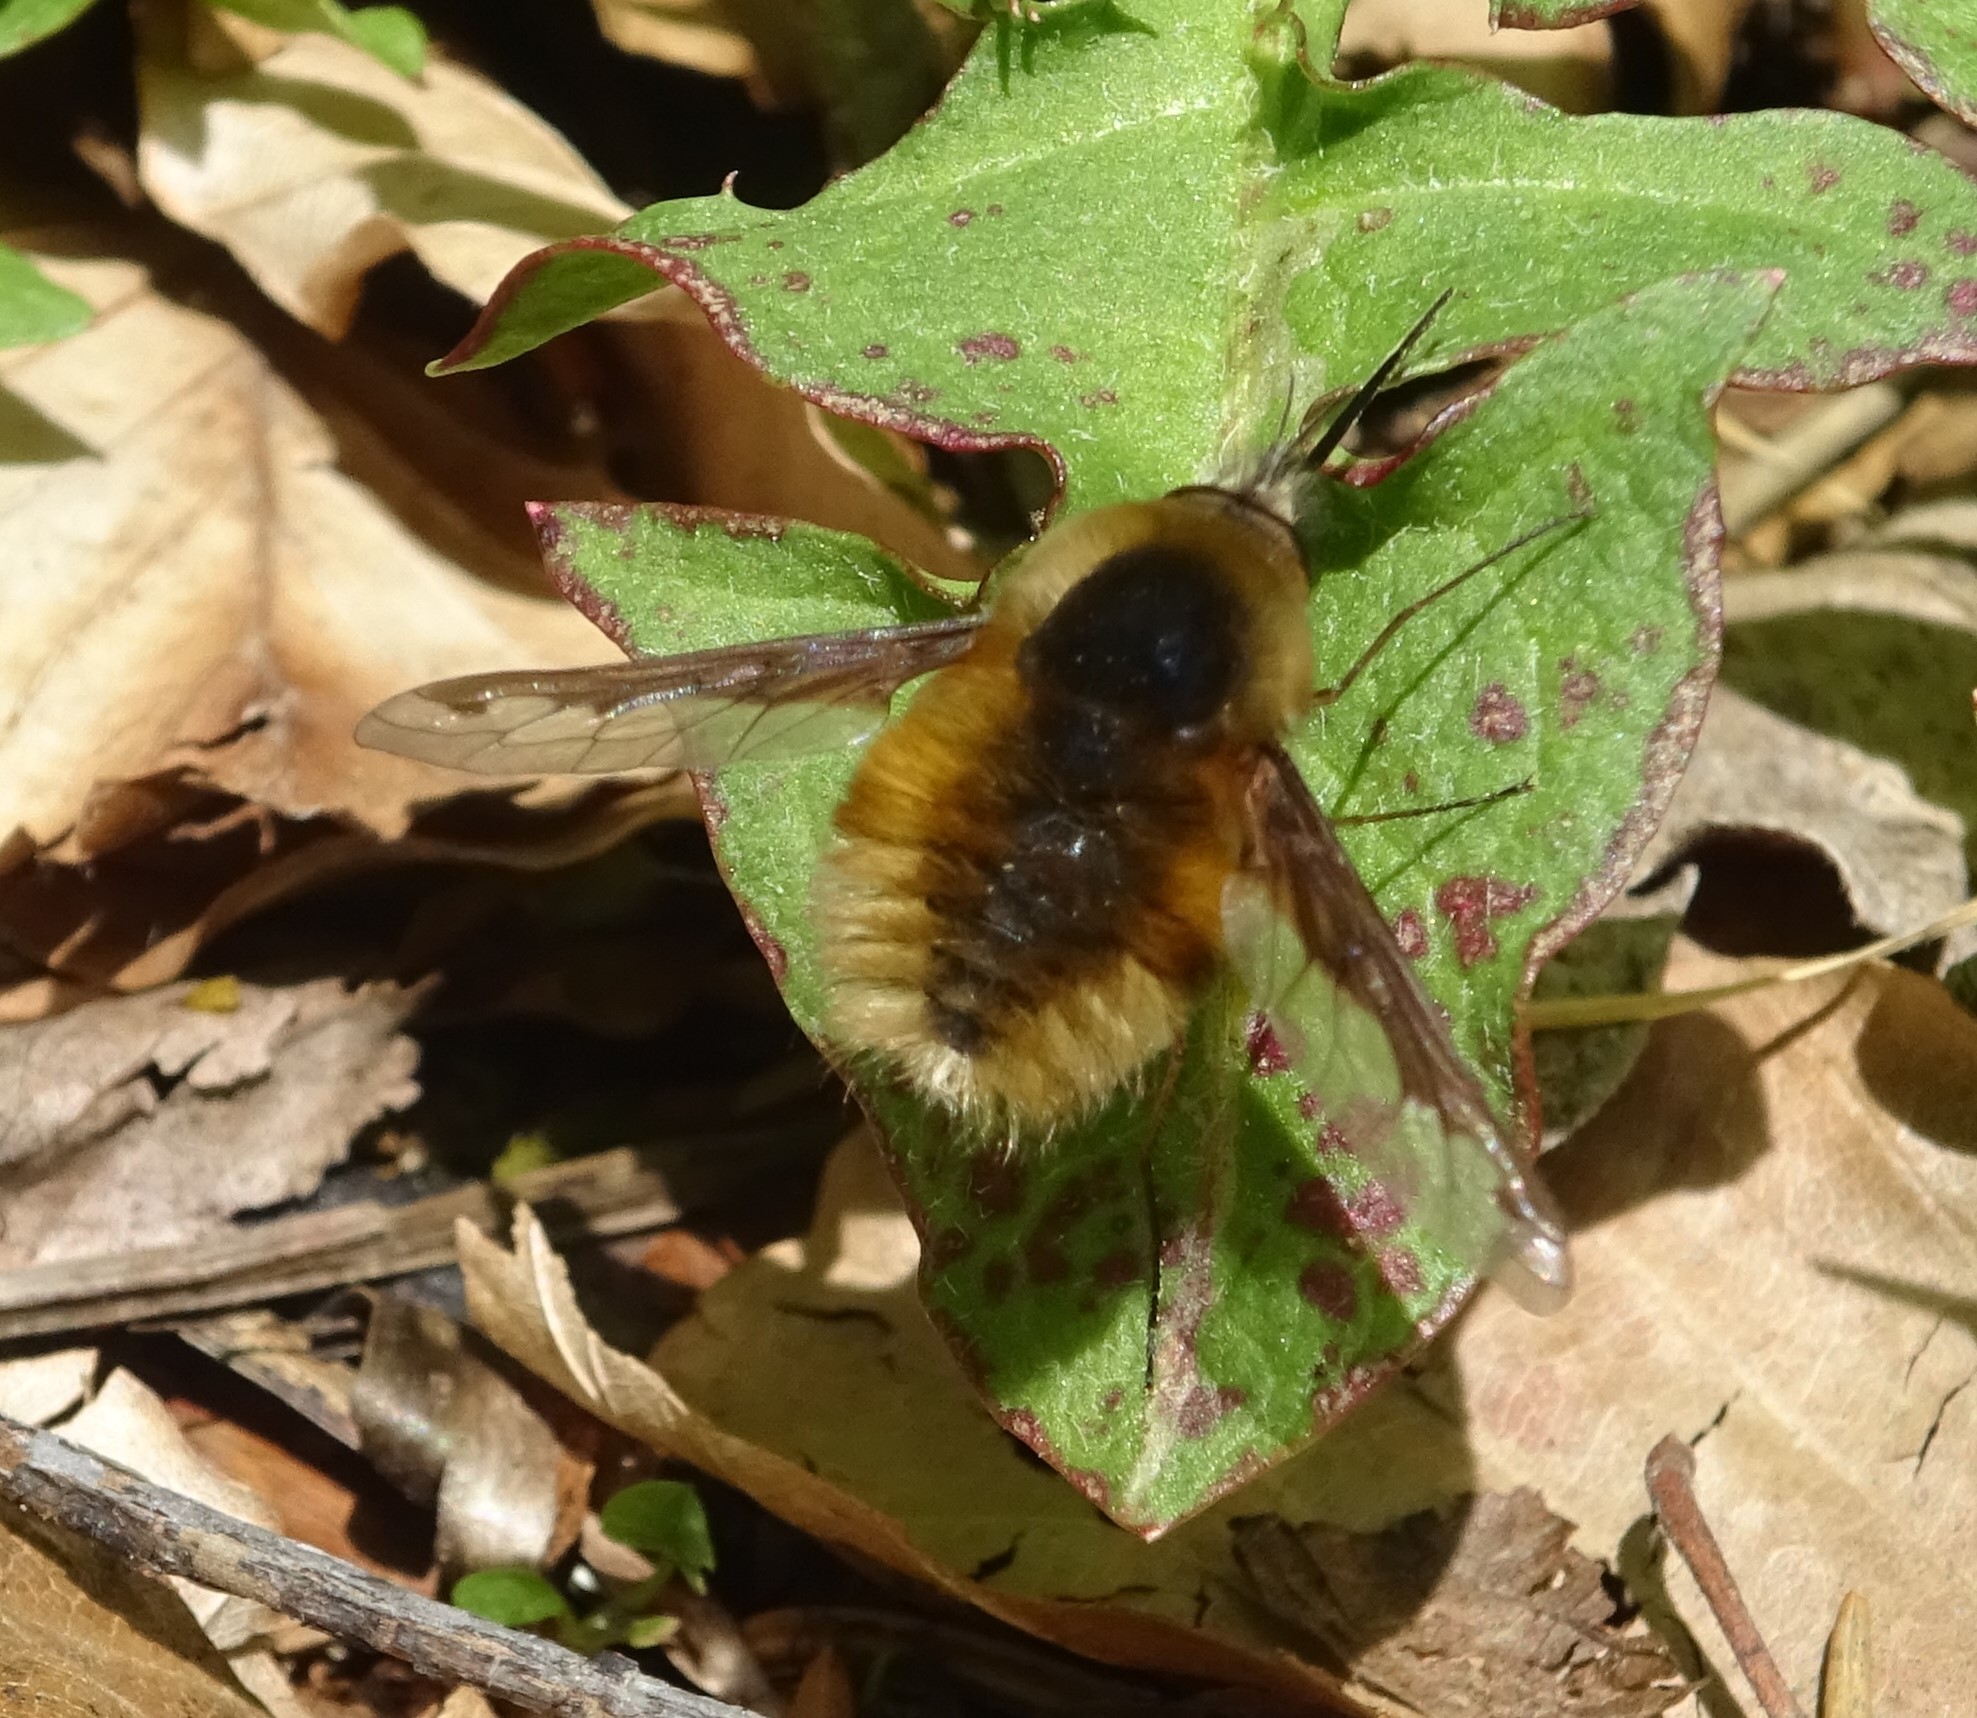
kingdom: Animalia
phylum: Arthropoda
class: Insecta
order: Diptera
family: Bombyliidae
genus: Bombylius
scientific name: Bombylius major
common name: Bee fly
